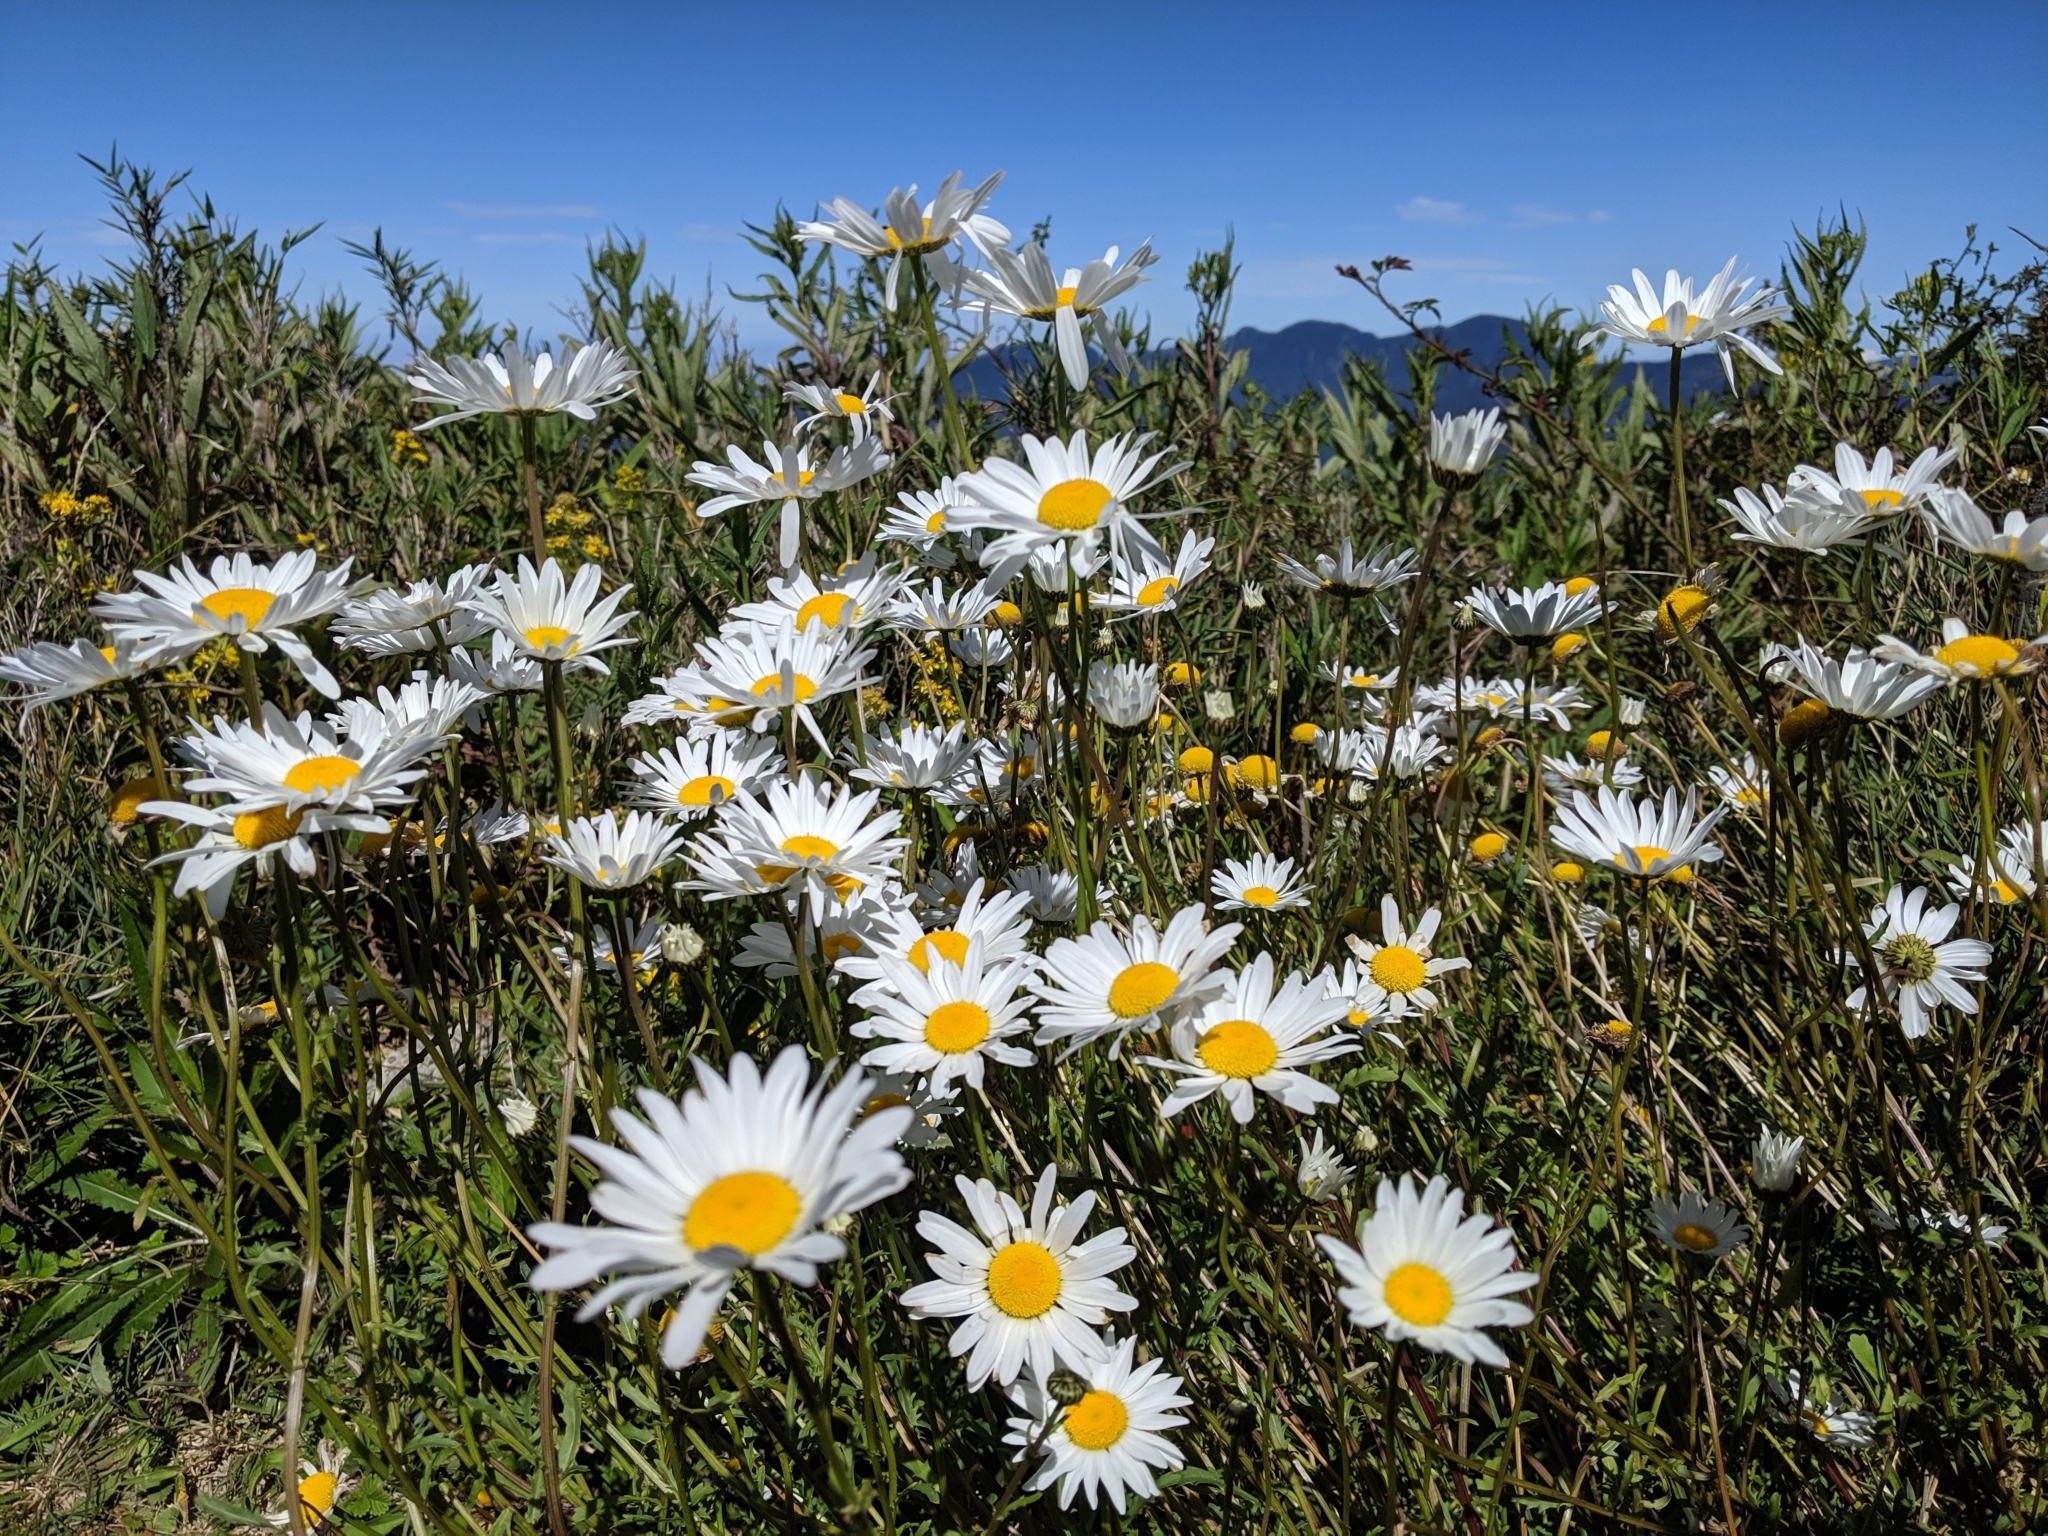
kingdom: Plantae
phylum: Tracheophyta
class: Magnoliopsida
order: Asterales
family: Asteraceae
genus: Leucanthemum
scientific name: Leucanthemum vulgare
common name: Oxeye daisy
